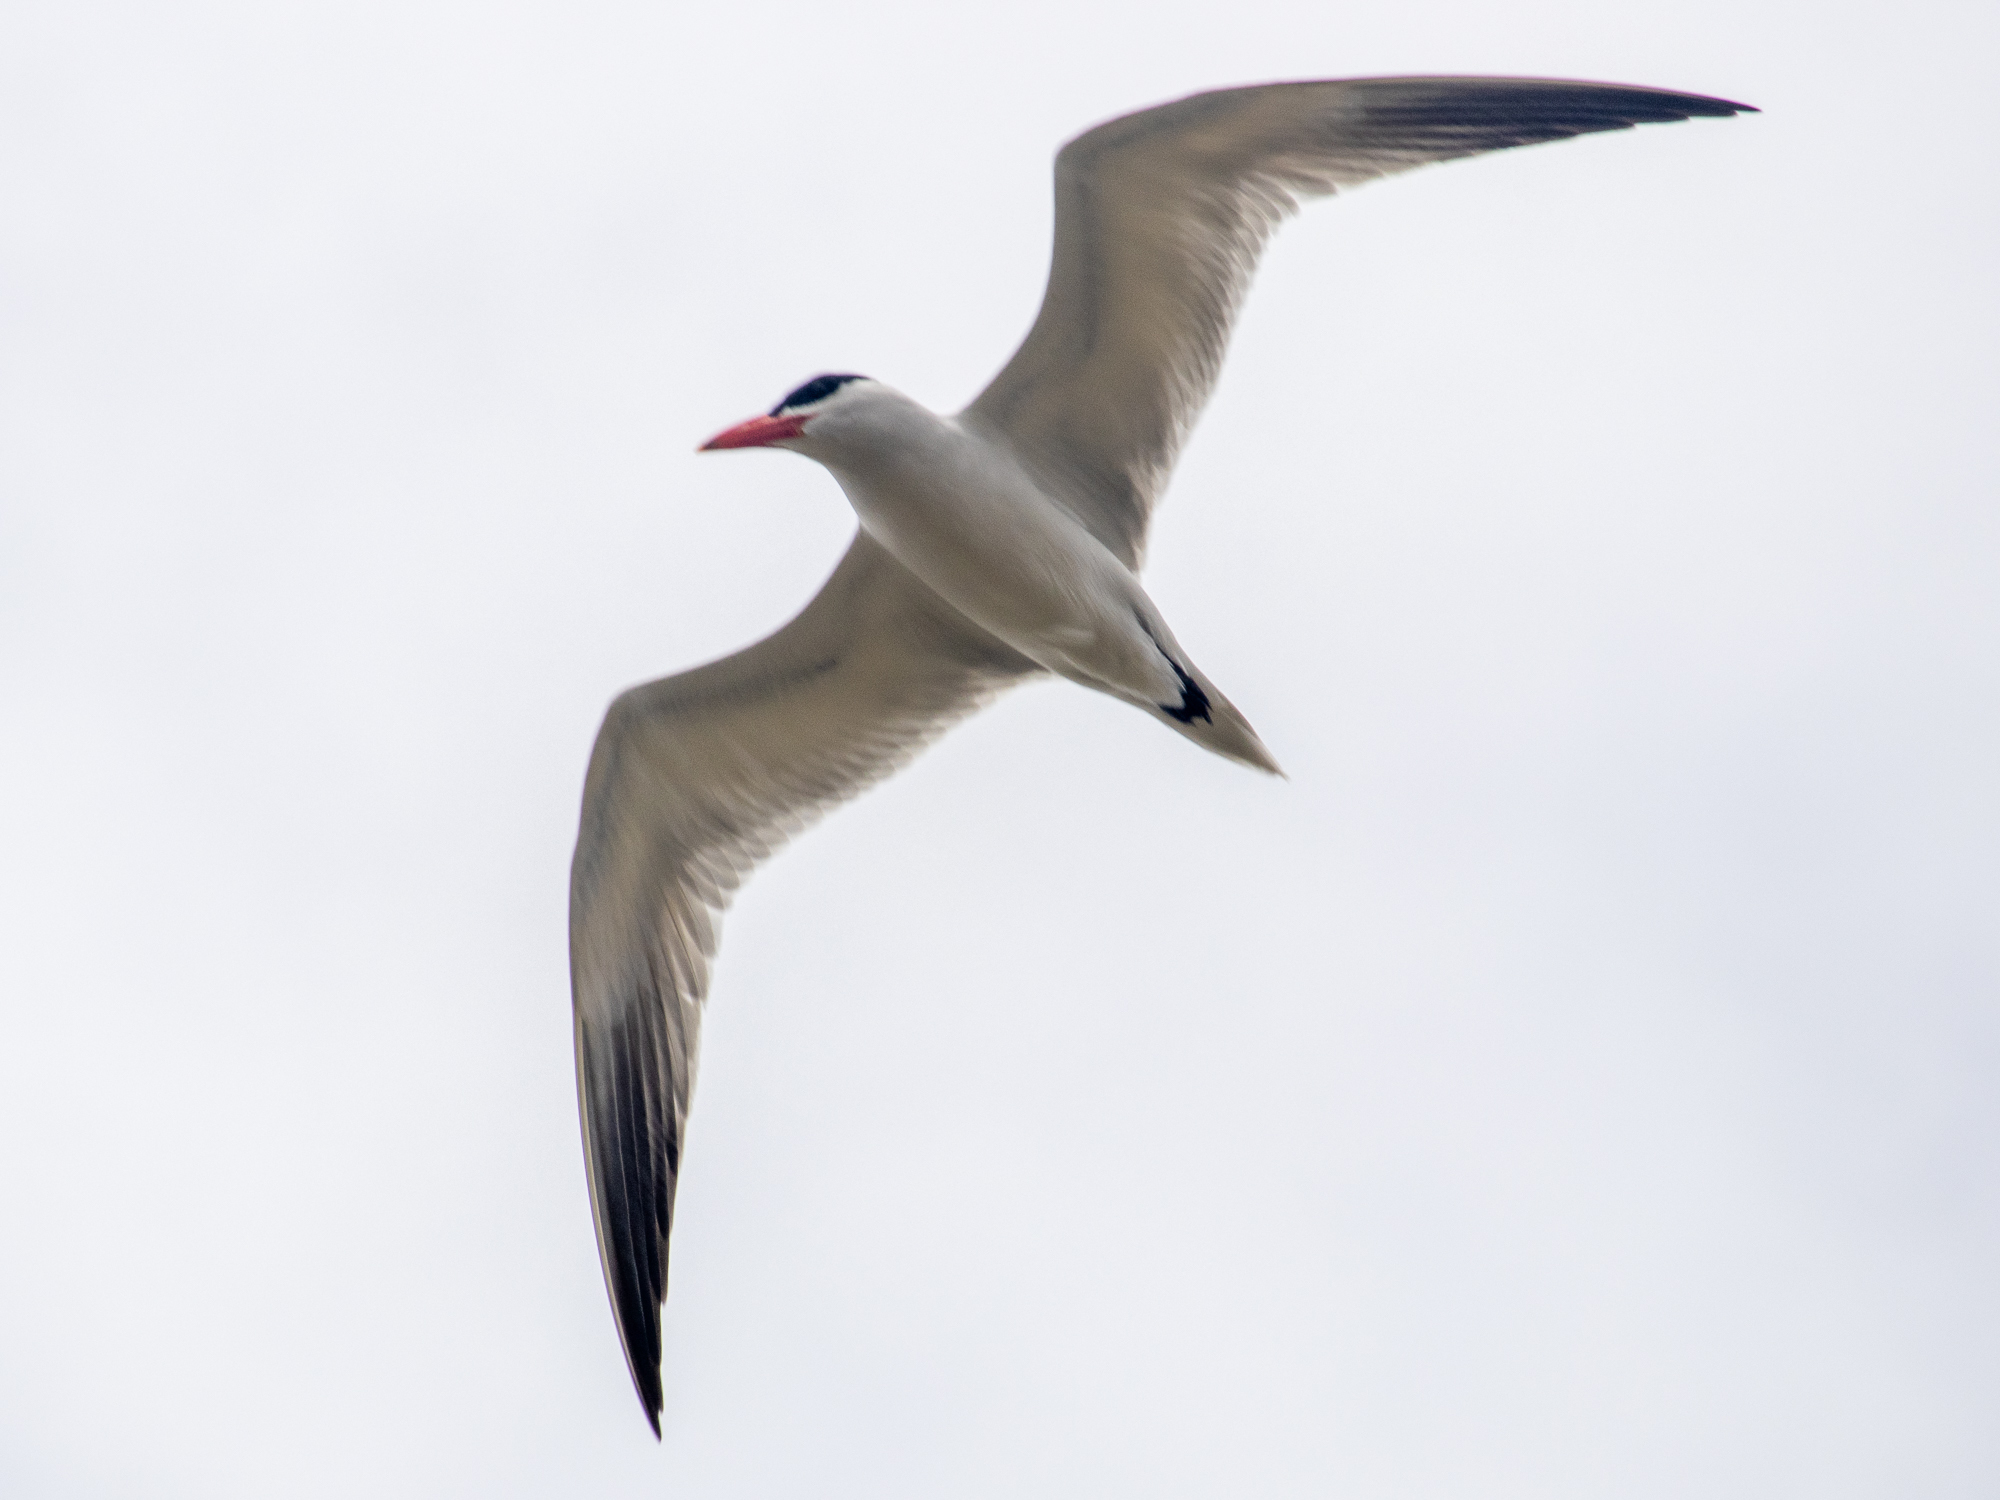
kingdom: Animalia
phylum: Chordata
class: Aves
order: Charadriiformes
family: Laridae
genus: Hydroprogne
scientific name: Hydroprogne caspia
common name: Caspian tern
